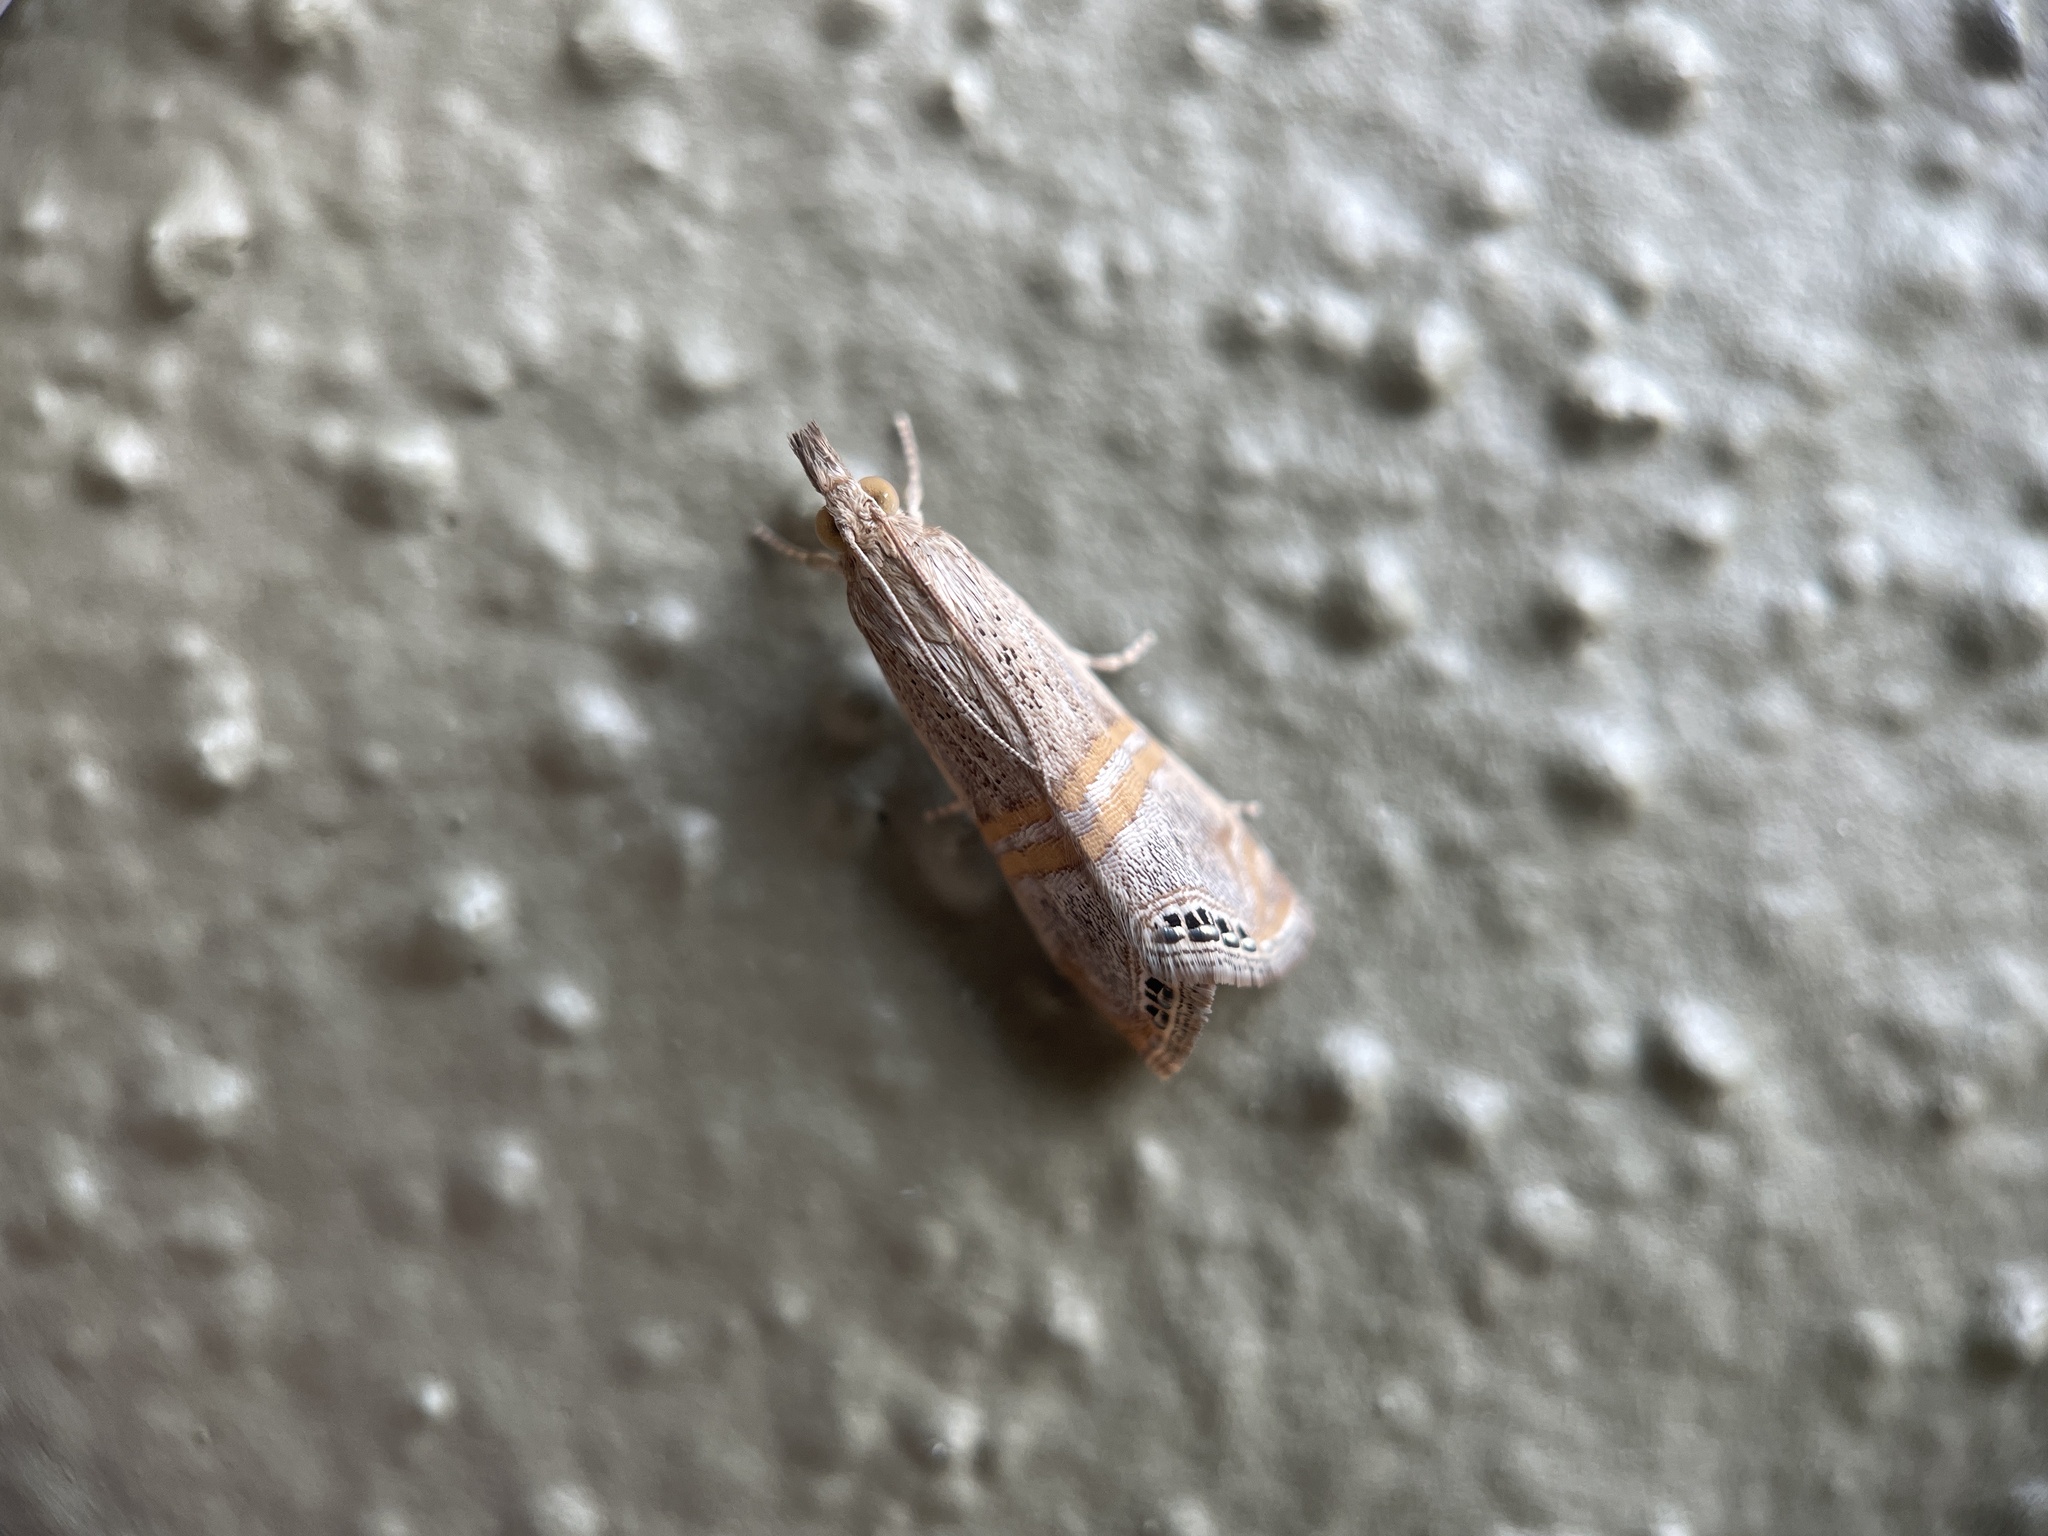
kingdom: Animalia
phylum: Arthropoda
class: Insecta
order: Lepidoptera
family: Crambidae
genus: Euchromius
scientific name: Euchromius ocellea
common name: Necklace veneer moth
